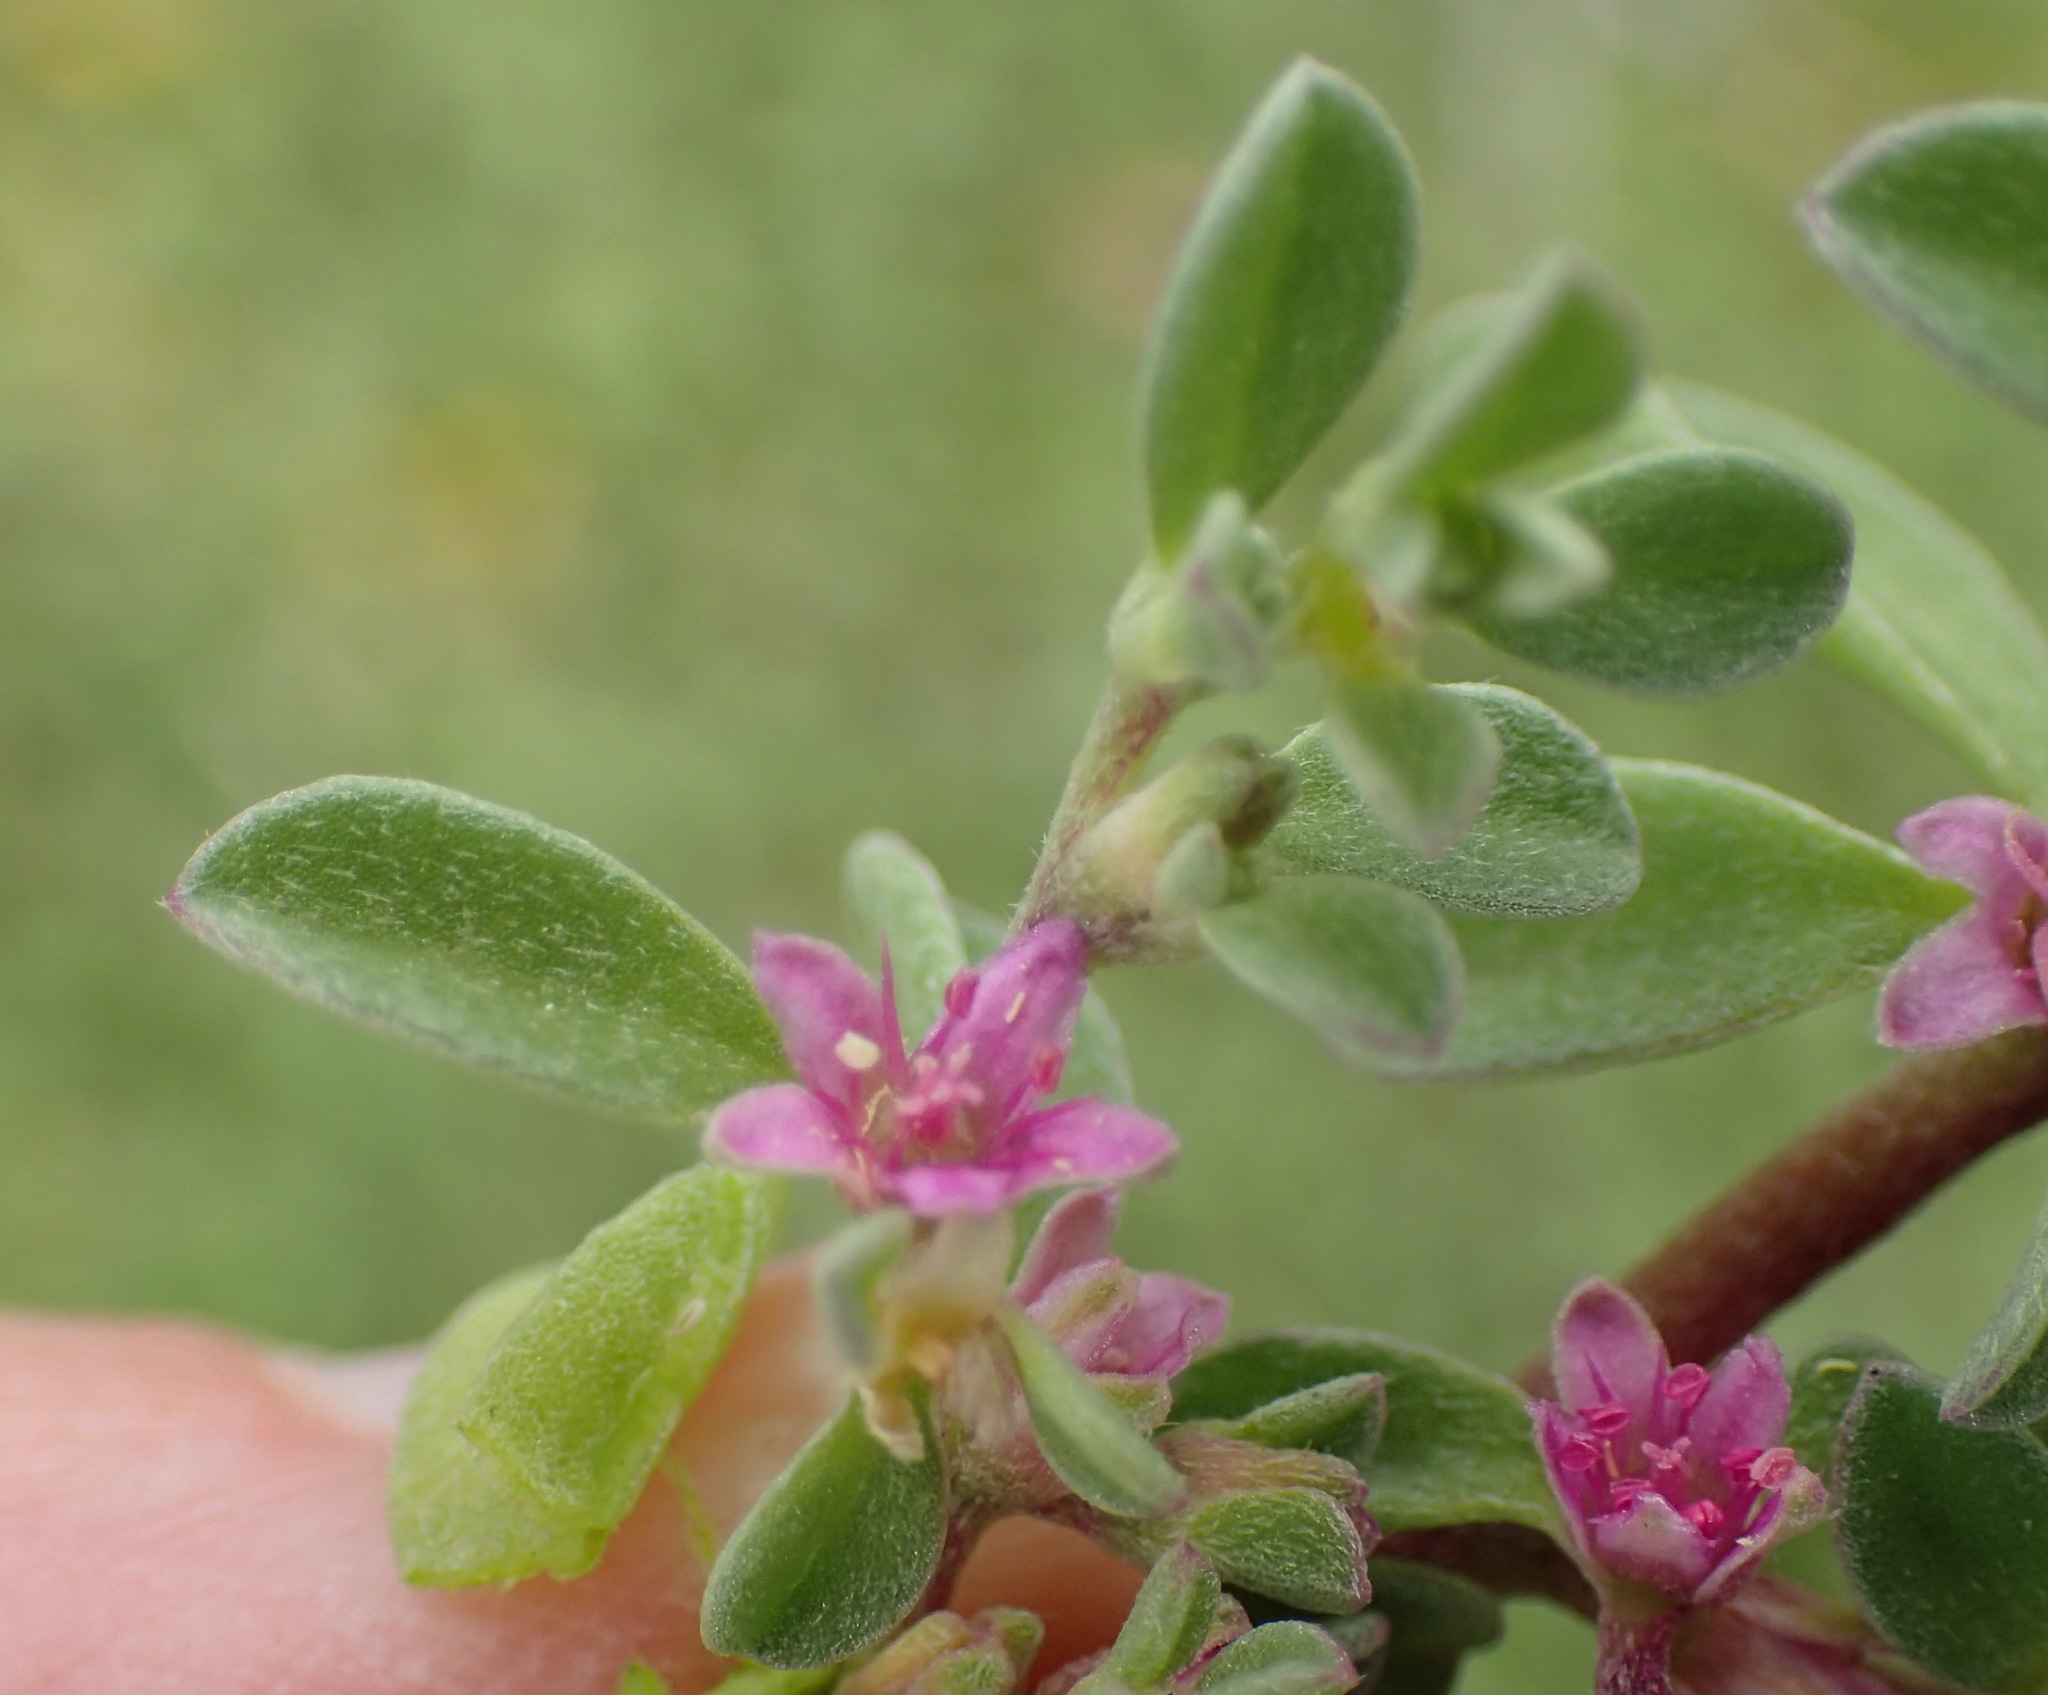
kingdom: Plantae
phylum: Tracheophyta
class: Magnoliopsida
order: Caryophyllales
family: Aizoaceae
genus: Aizoon
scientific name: Aizoon portulacaceum
